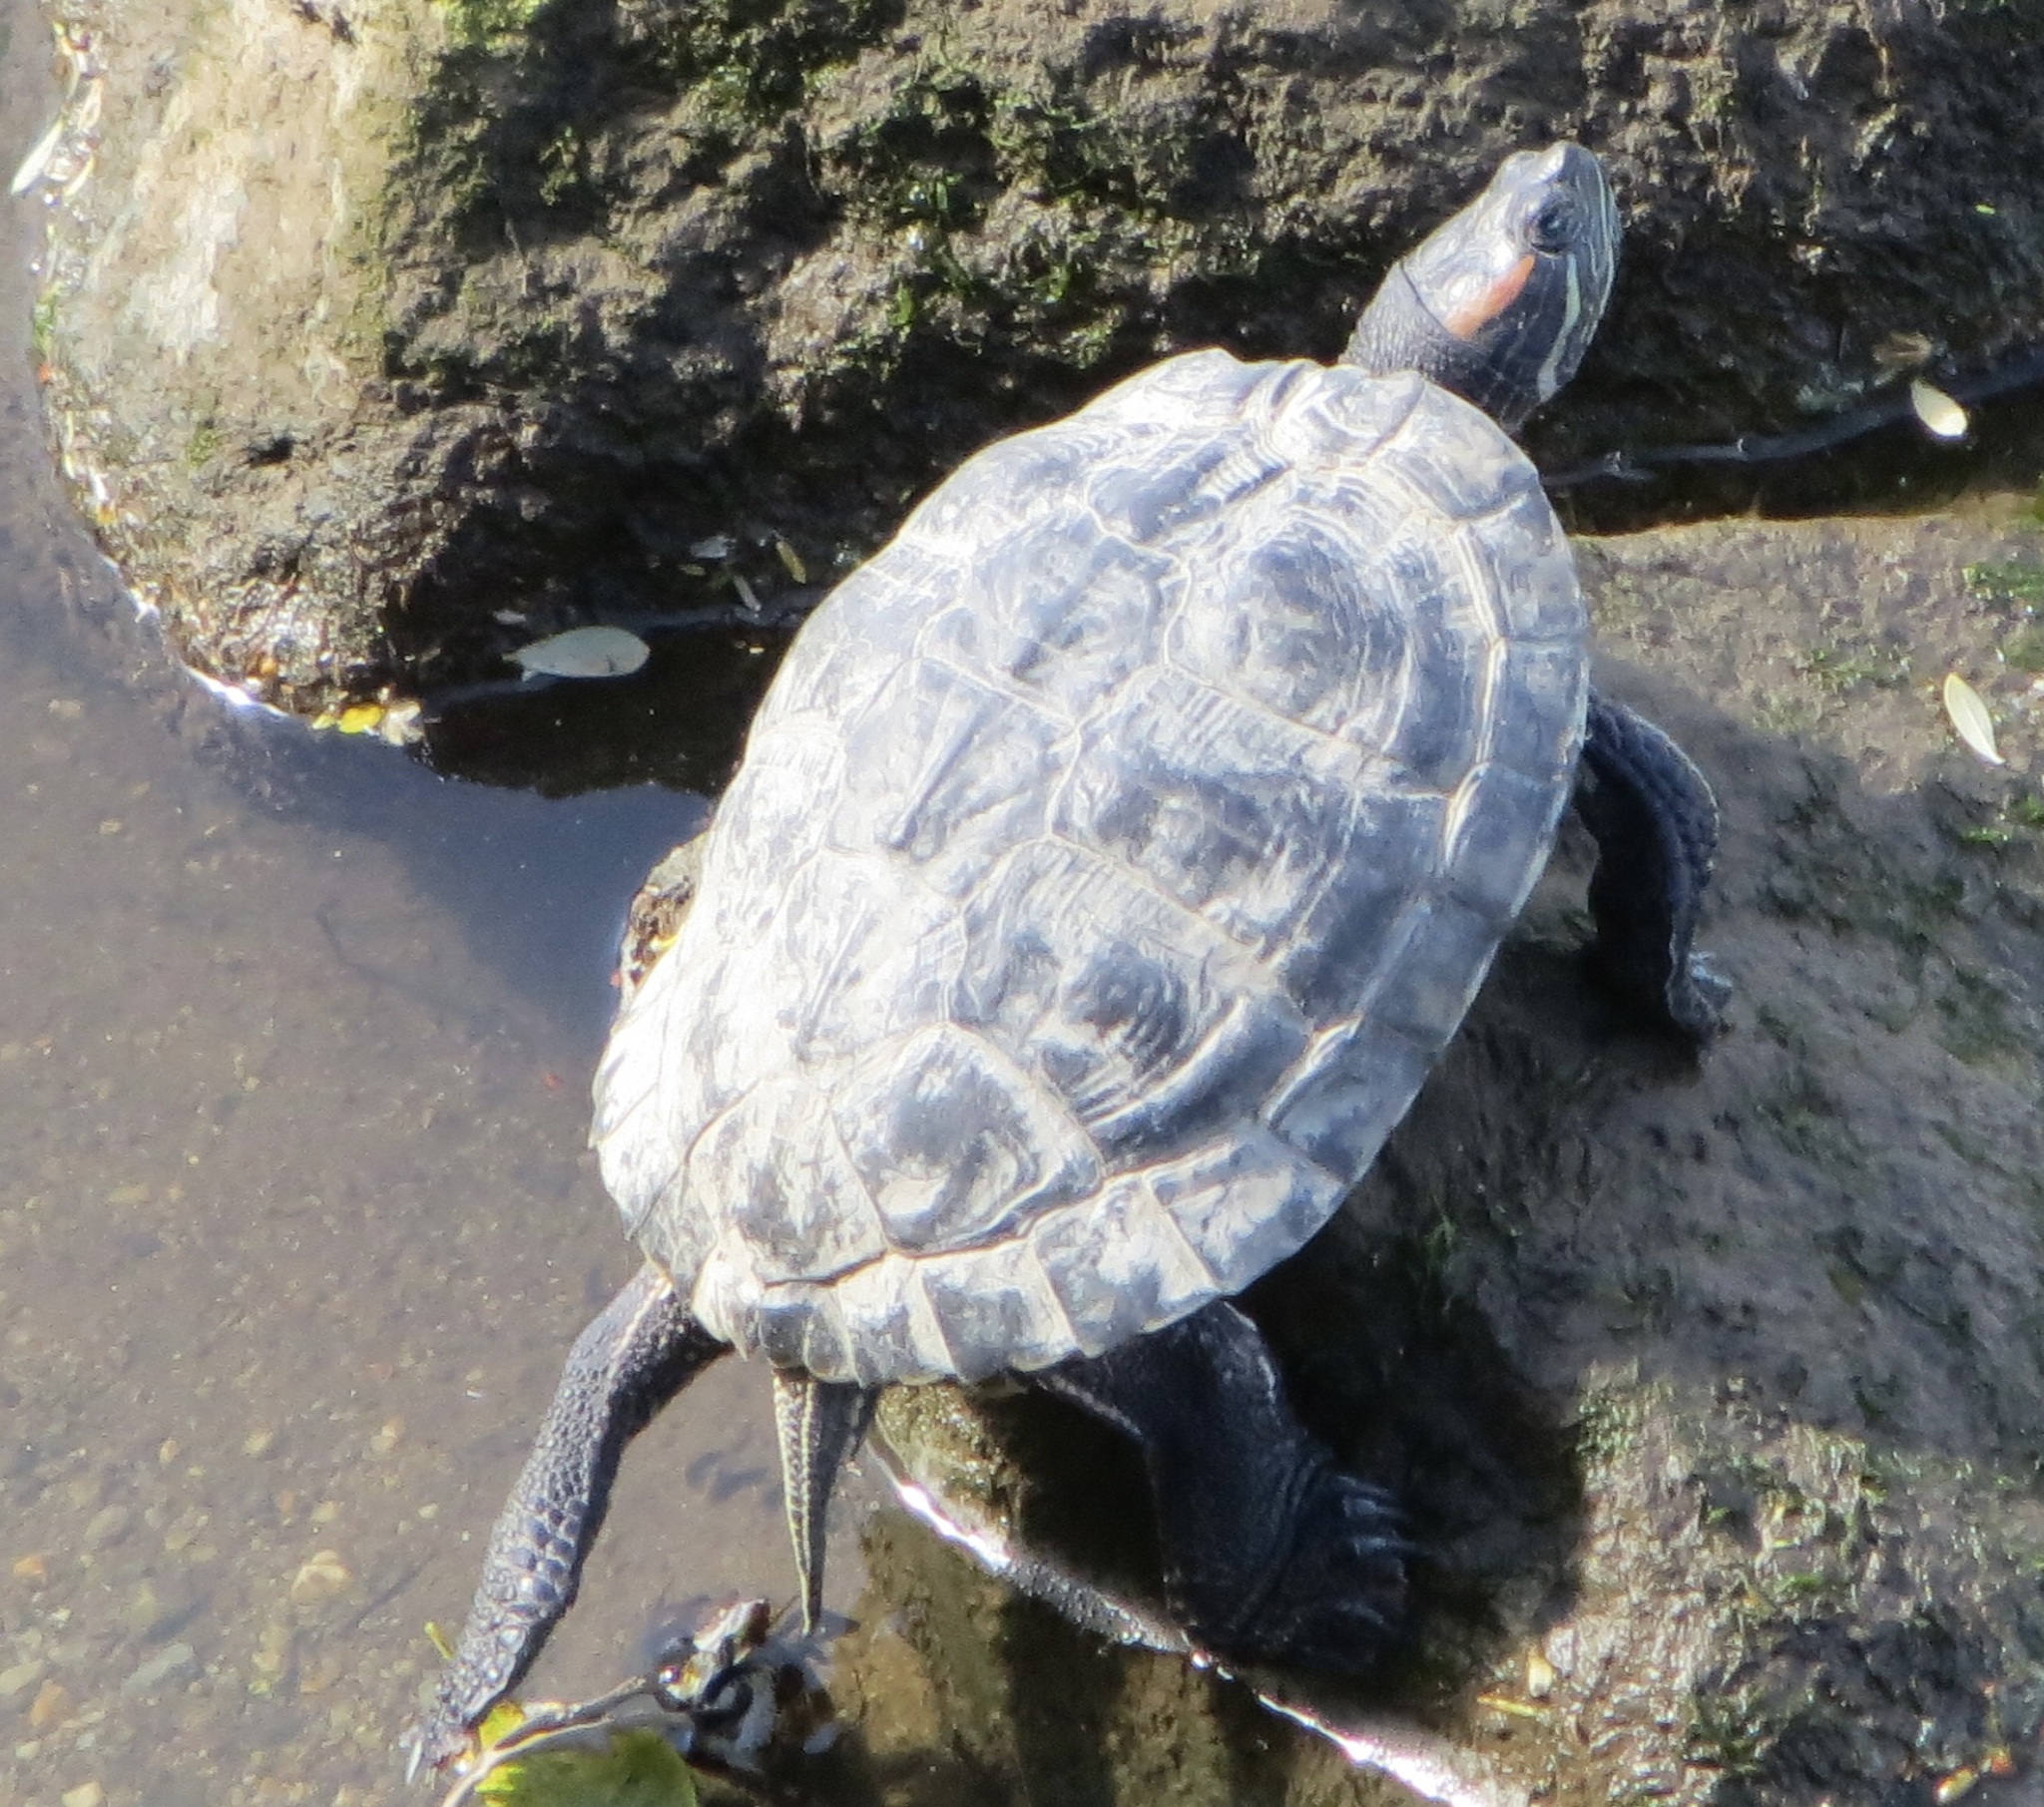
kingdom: Animalia
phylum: Chordata
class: Testudines
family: Emydidae
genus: Trachemys
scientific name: Trachemys scripta
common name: Slider
